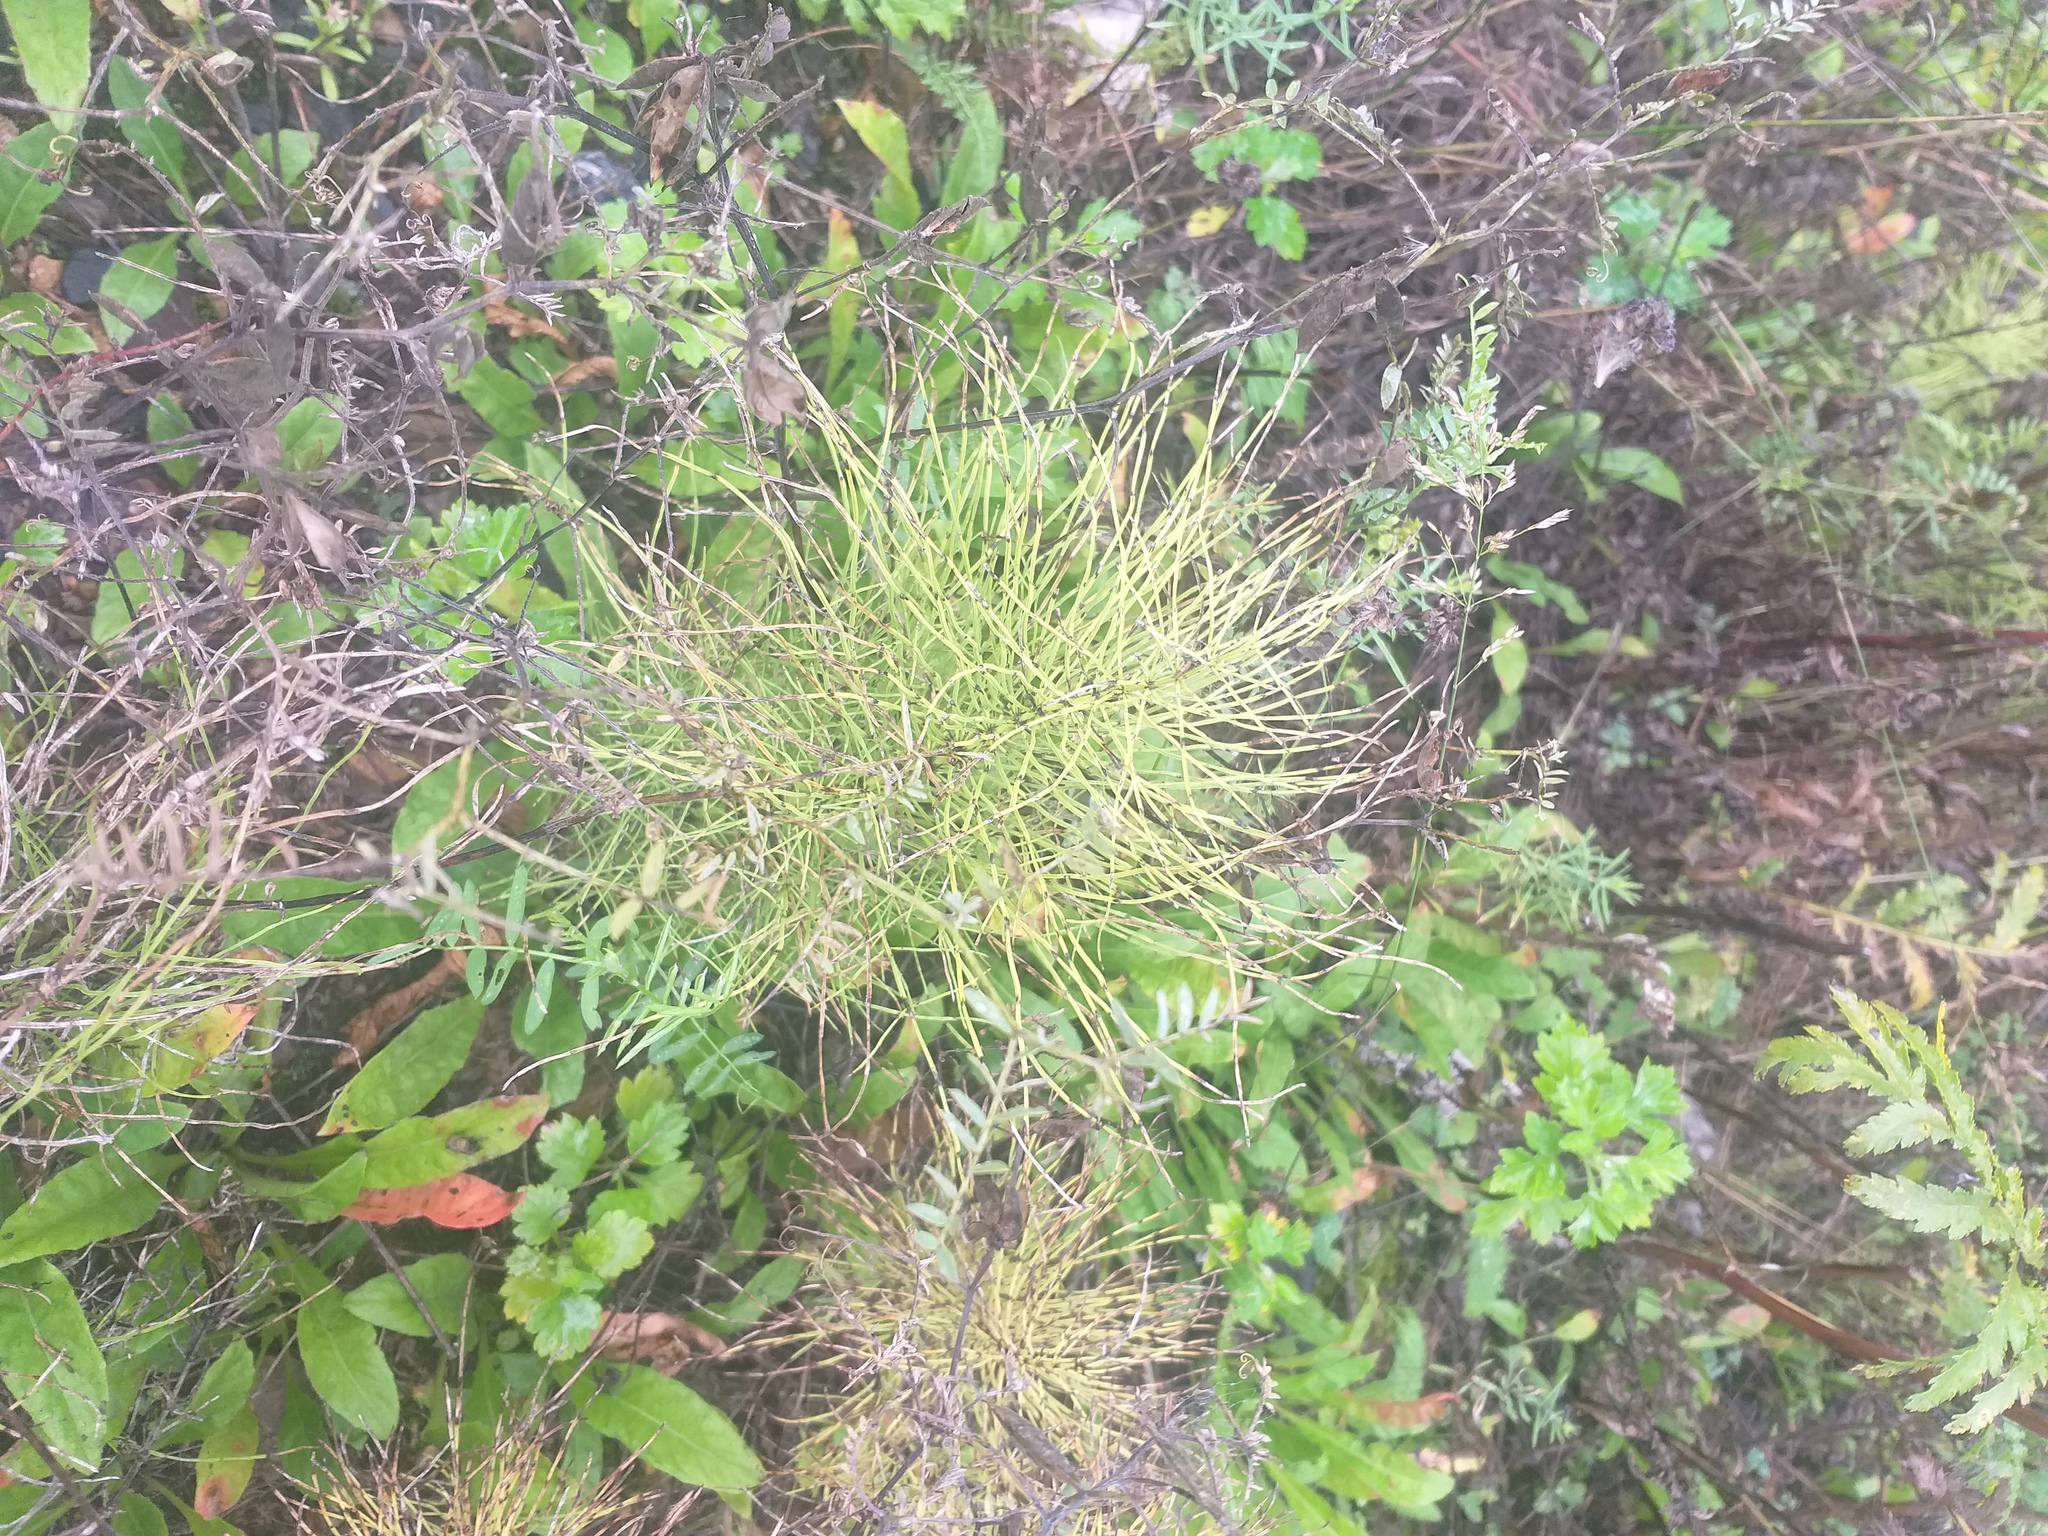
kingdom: Plantae
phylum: Tracheophyta
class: Polypodiopsida
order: Equisetales
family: Equisetaceae
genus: Equisetum
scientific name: Equisetum pratense
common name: Meadow horsetail
